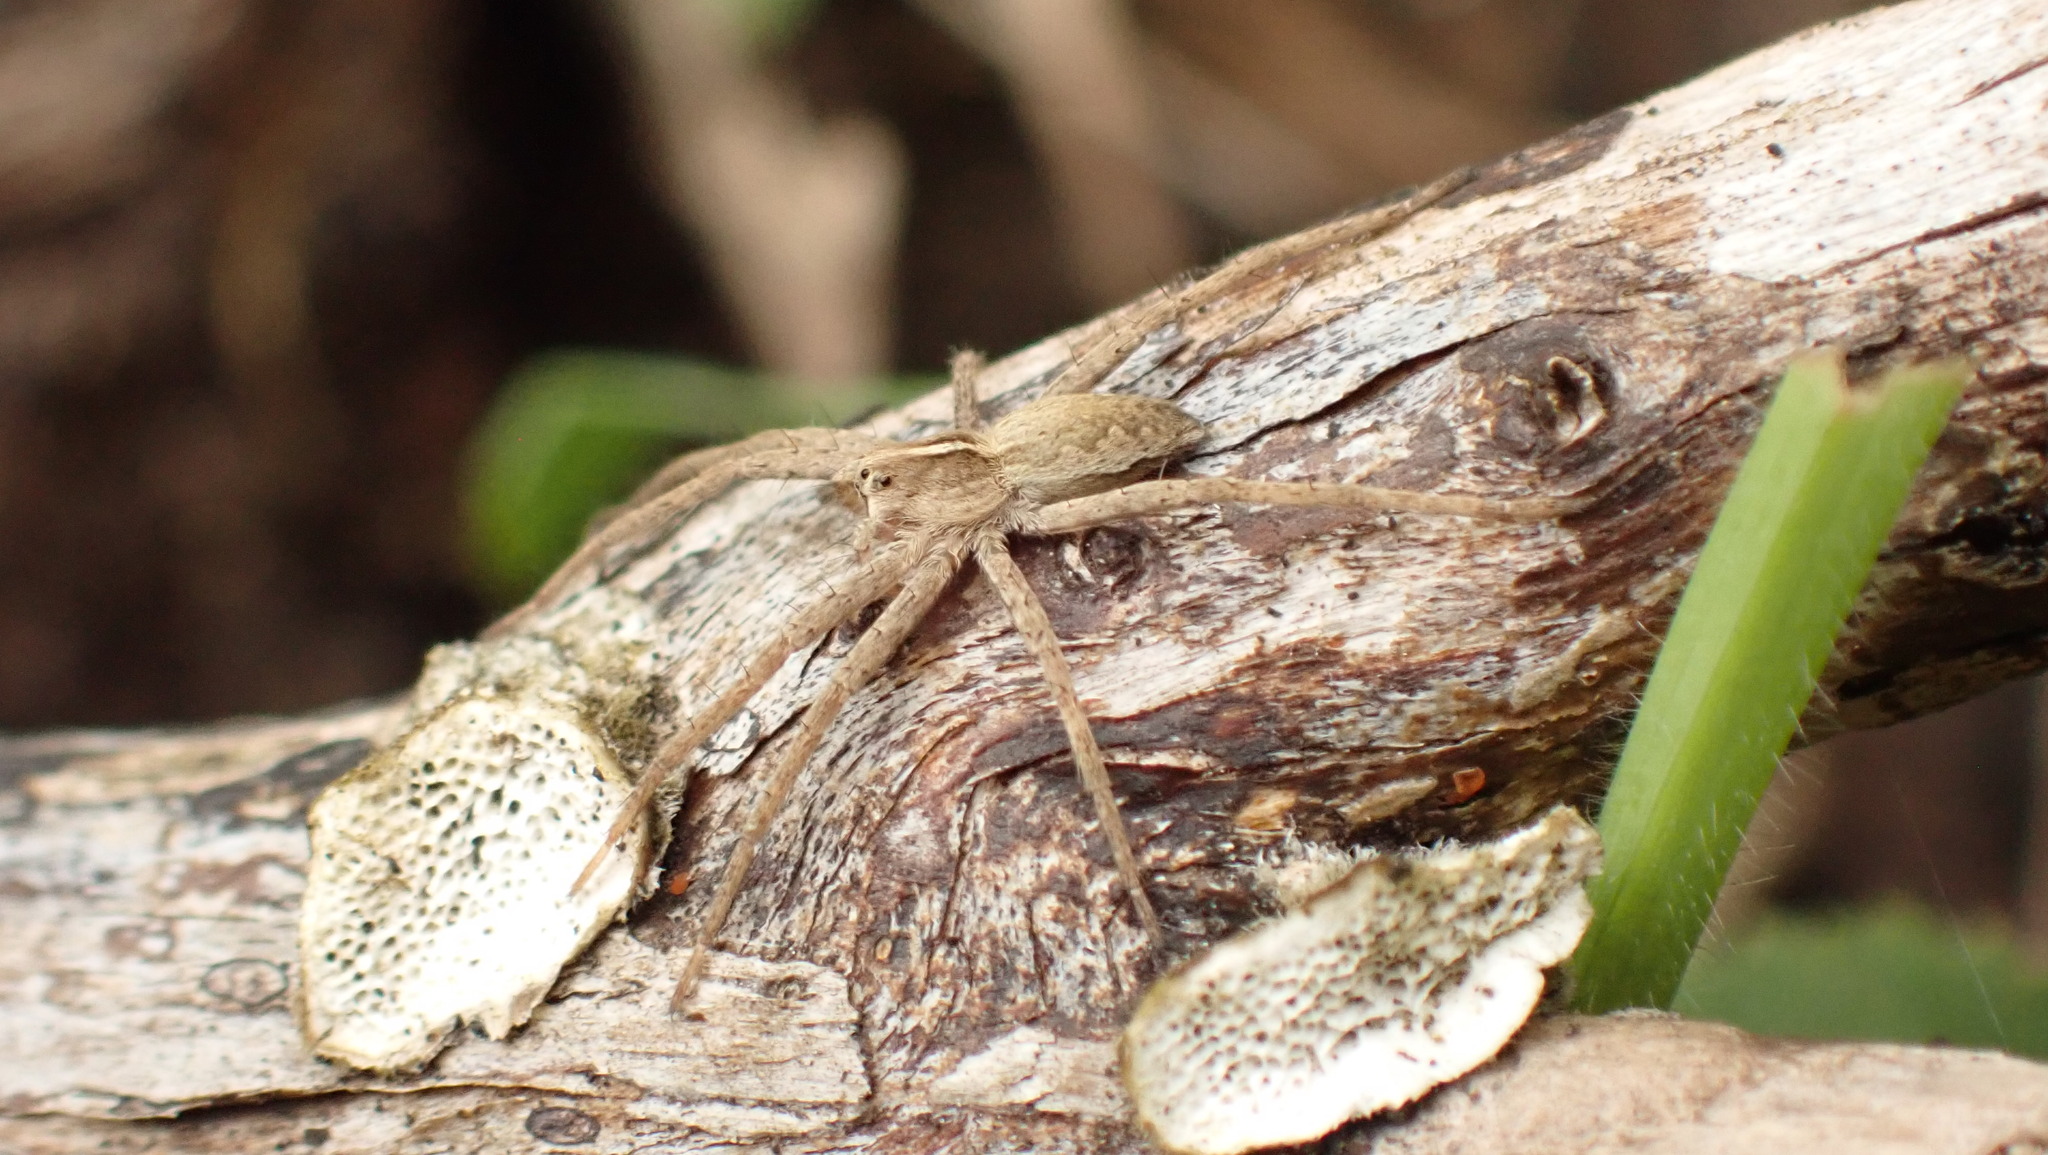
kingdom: Animalia
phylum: Arthropoda
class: Arachnida
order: Araneae
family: Pisauridae
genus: Pisaura
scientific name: Pisaura mirabilis
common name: Tent spider
